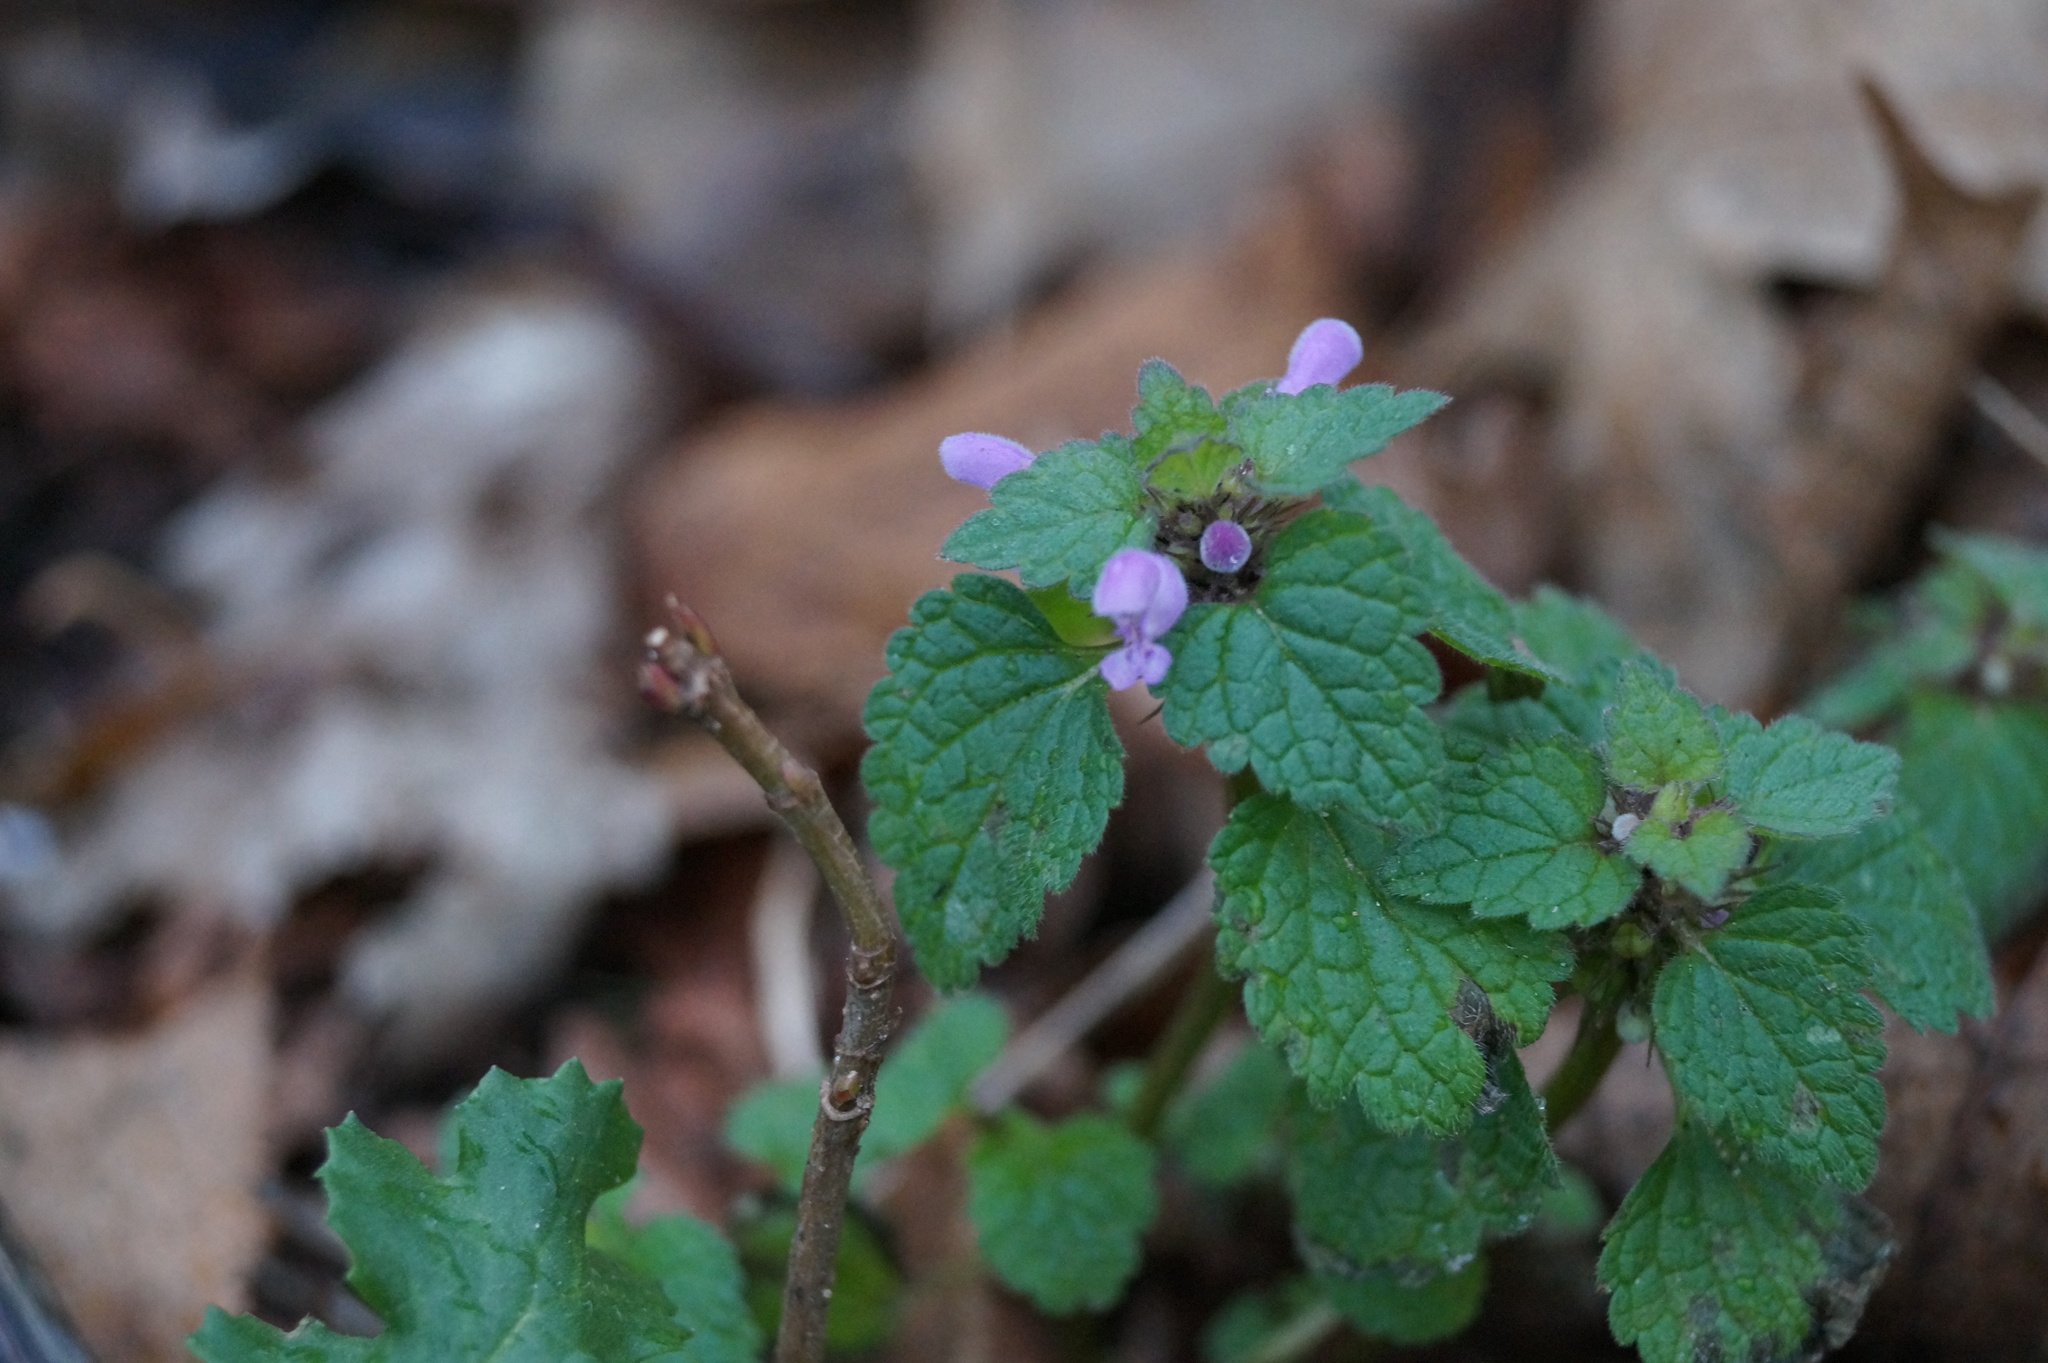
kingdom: Plantae
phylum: Tracheophyta
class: Magnoliopsida
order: Lamiales
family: Lamiaceae
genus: Lamium
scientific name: Lamium purpureum
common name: Red dead-nettle
